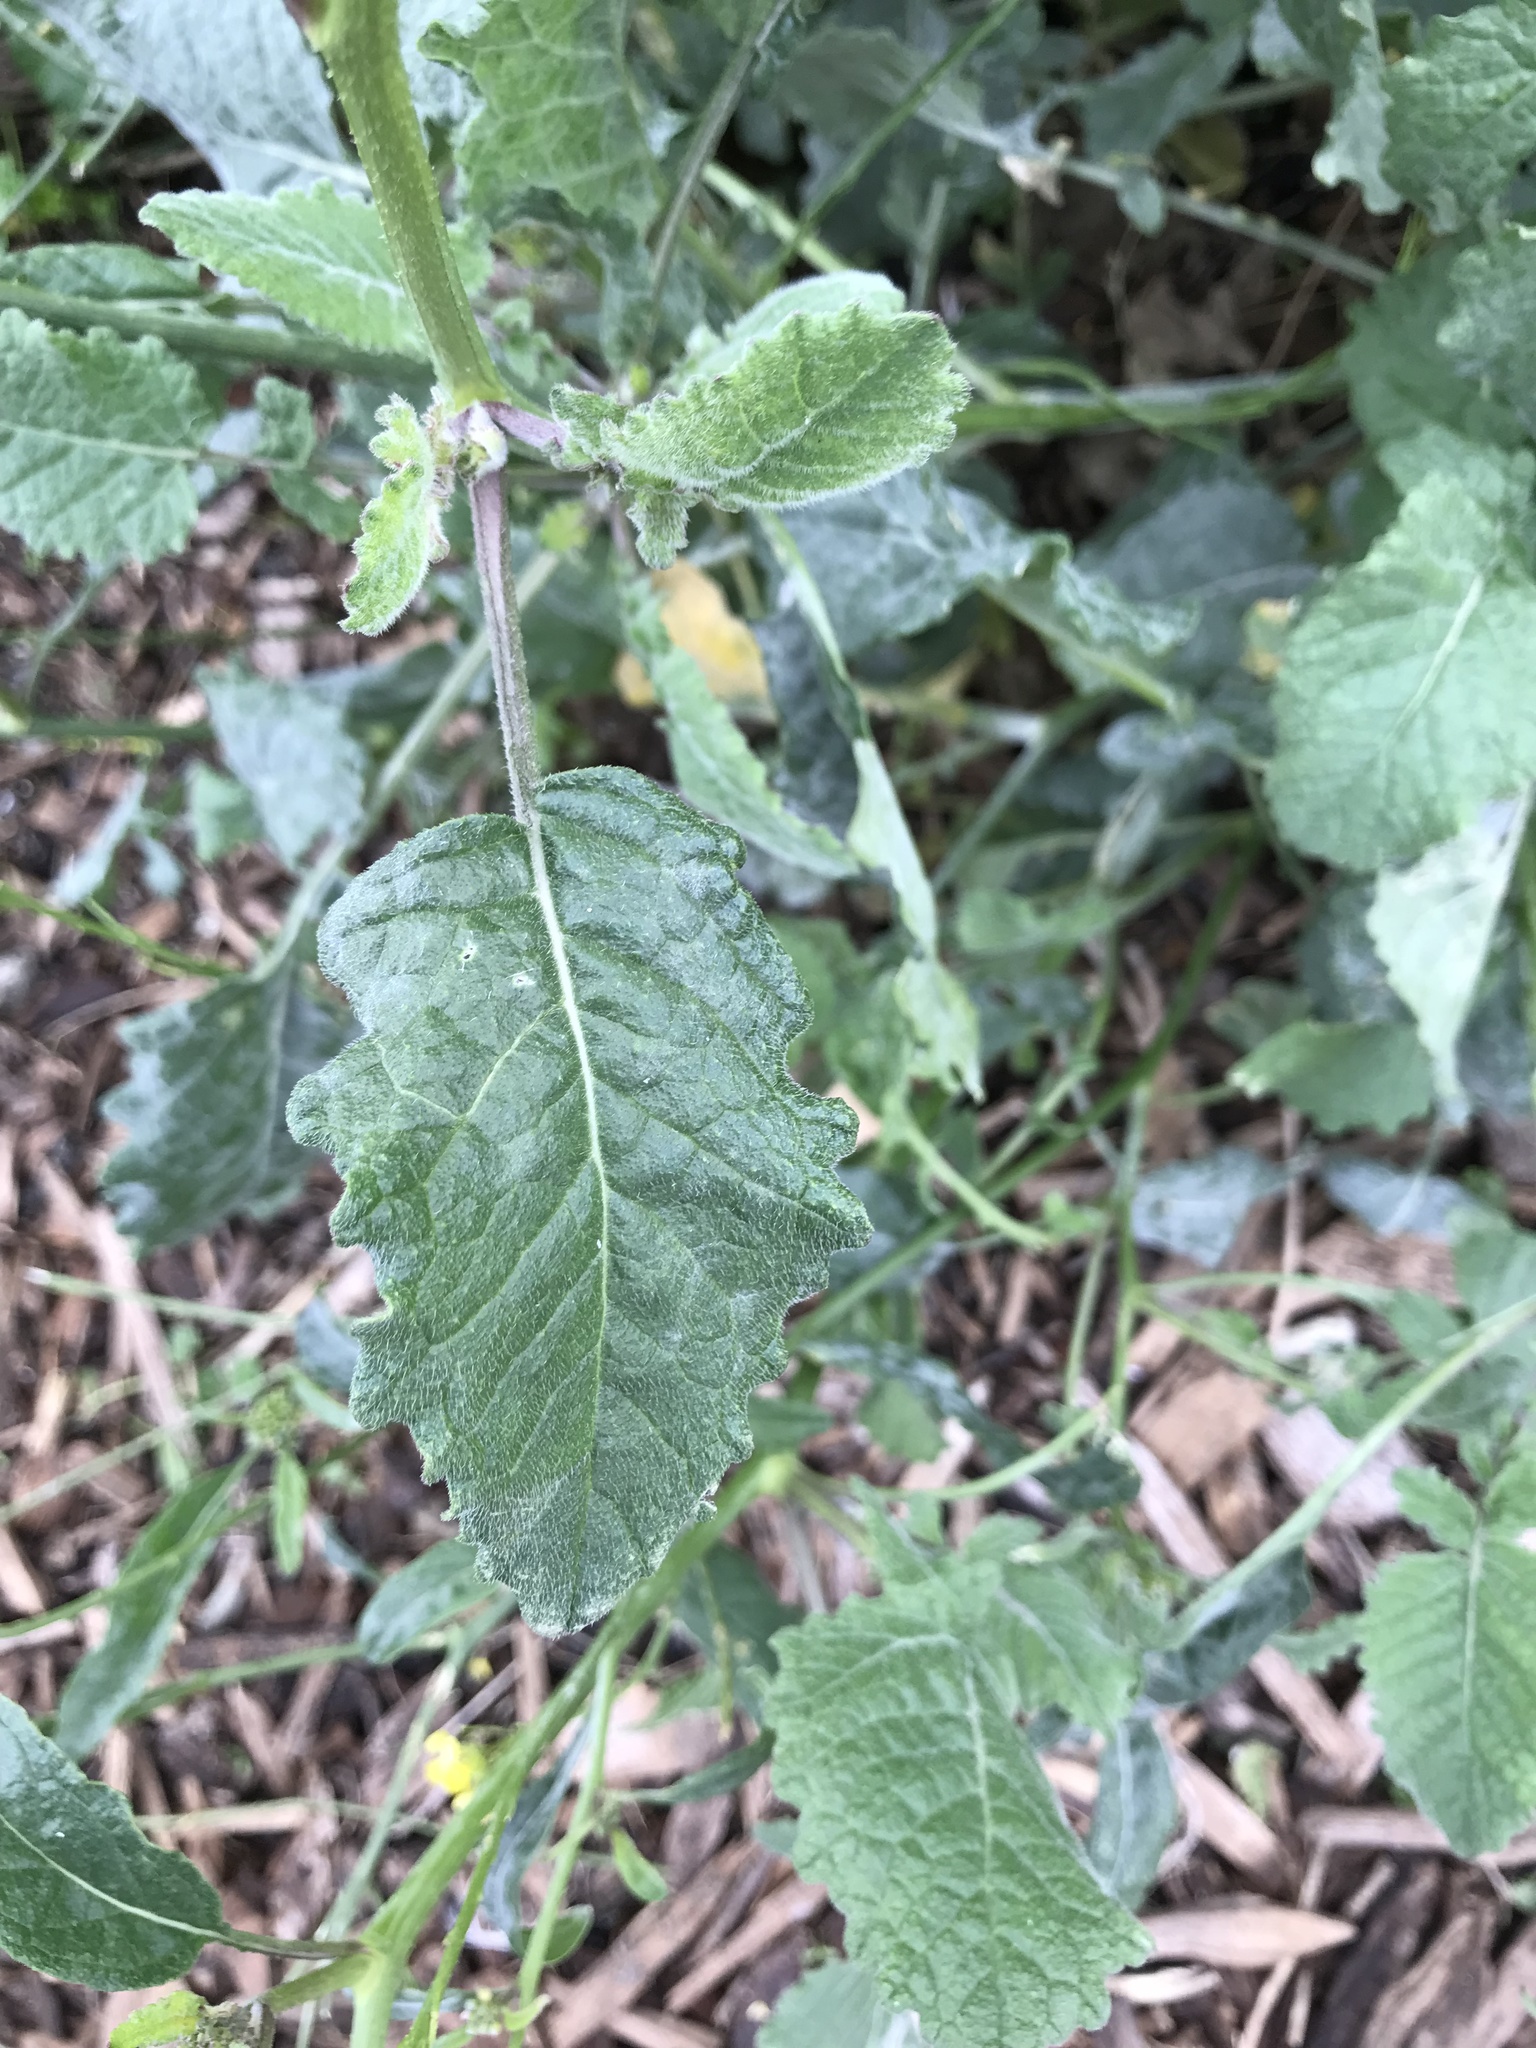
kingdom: Plantae
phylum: Tracheophyta
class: Magnoliopsida
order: Brassicales
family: Brassicaceae
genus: Hirschfeldia
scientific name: Hirschfeldia incana
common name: Hoary mustard
